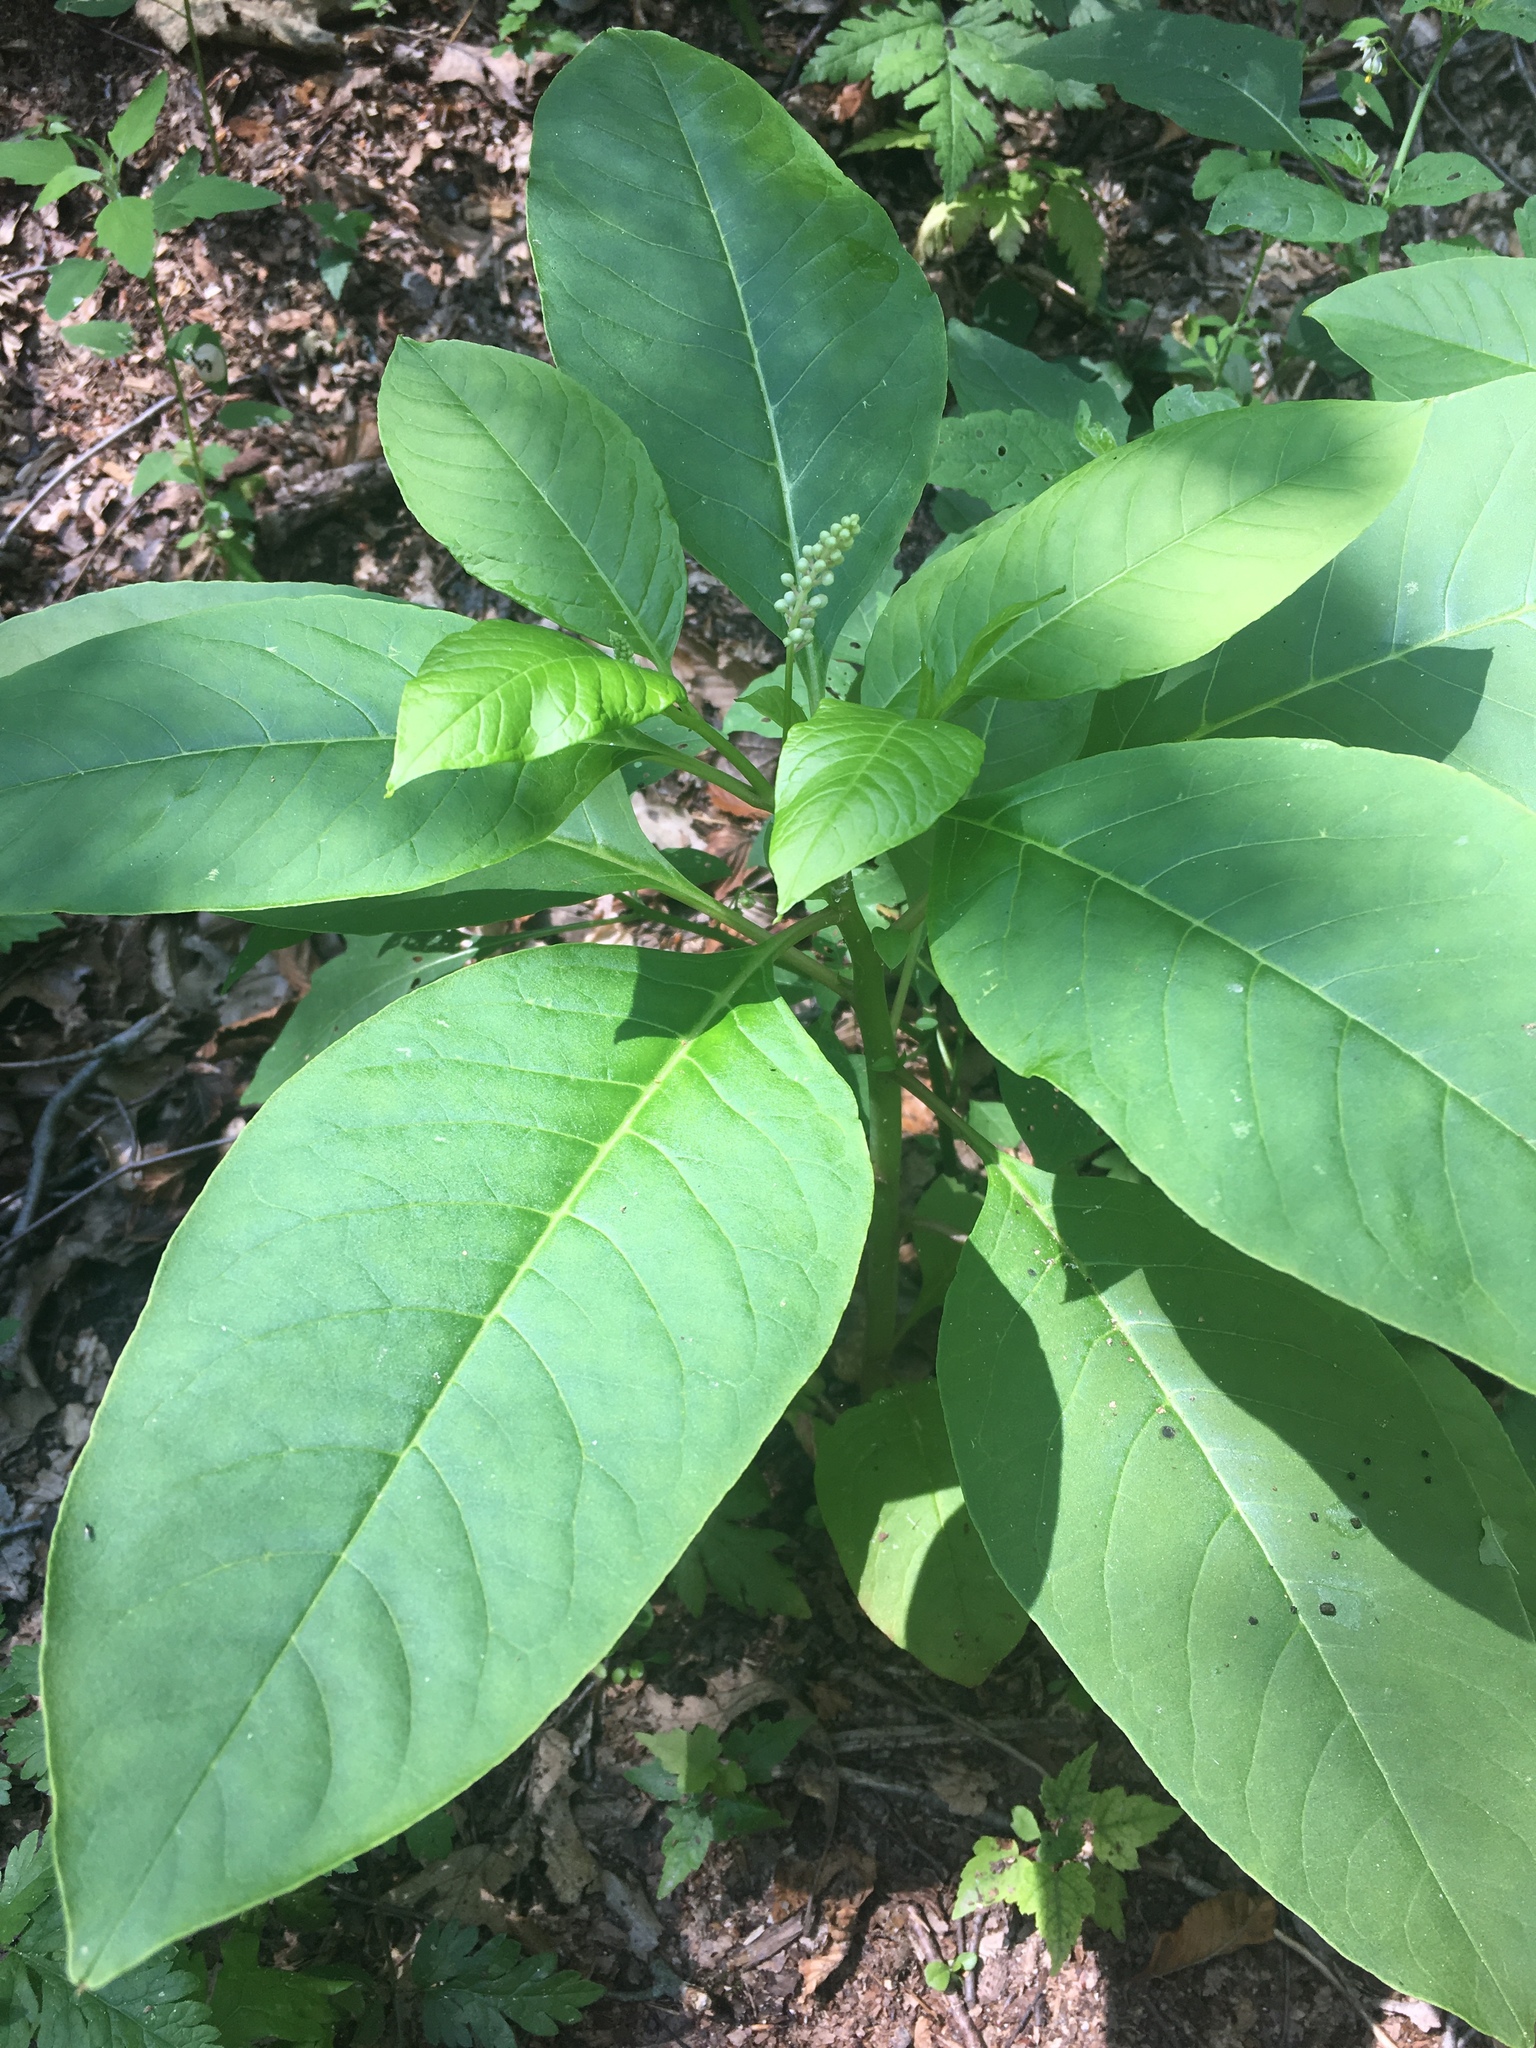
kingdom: Plantae
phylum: Tracheophyta
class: Magnoliopsida
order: Caryophyllales
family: Phytolaccaceae
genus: Phytolacca
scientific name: Phytolacca americana
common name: American pokeweed
